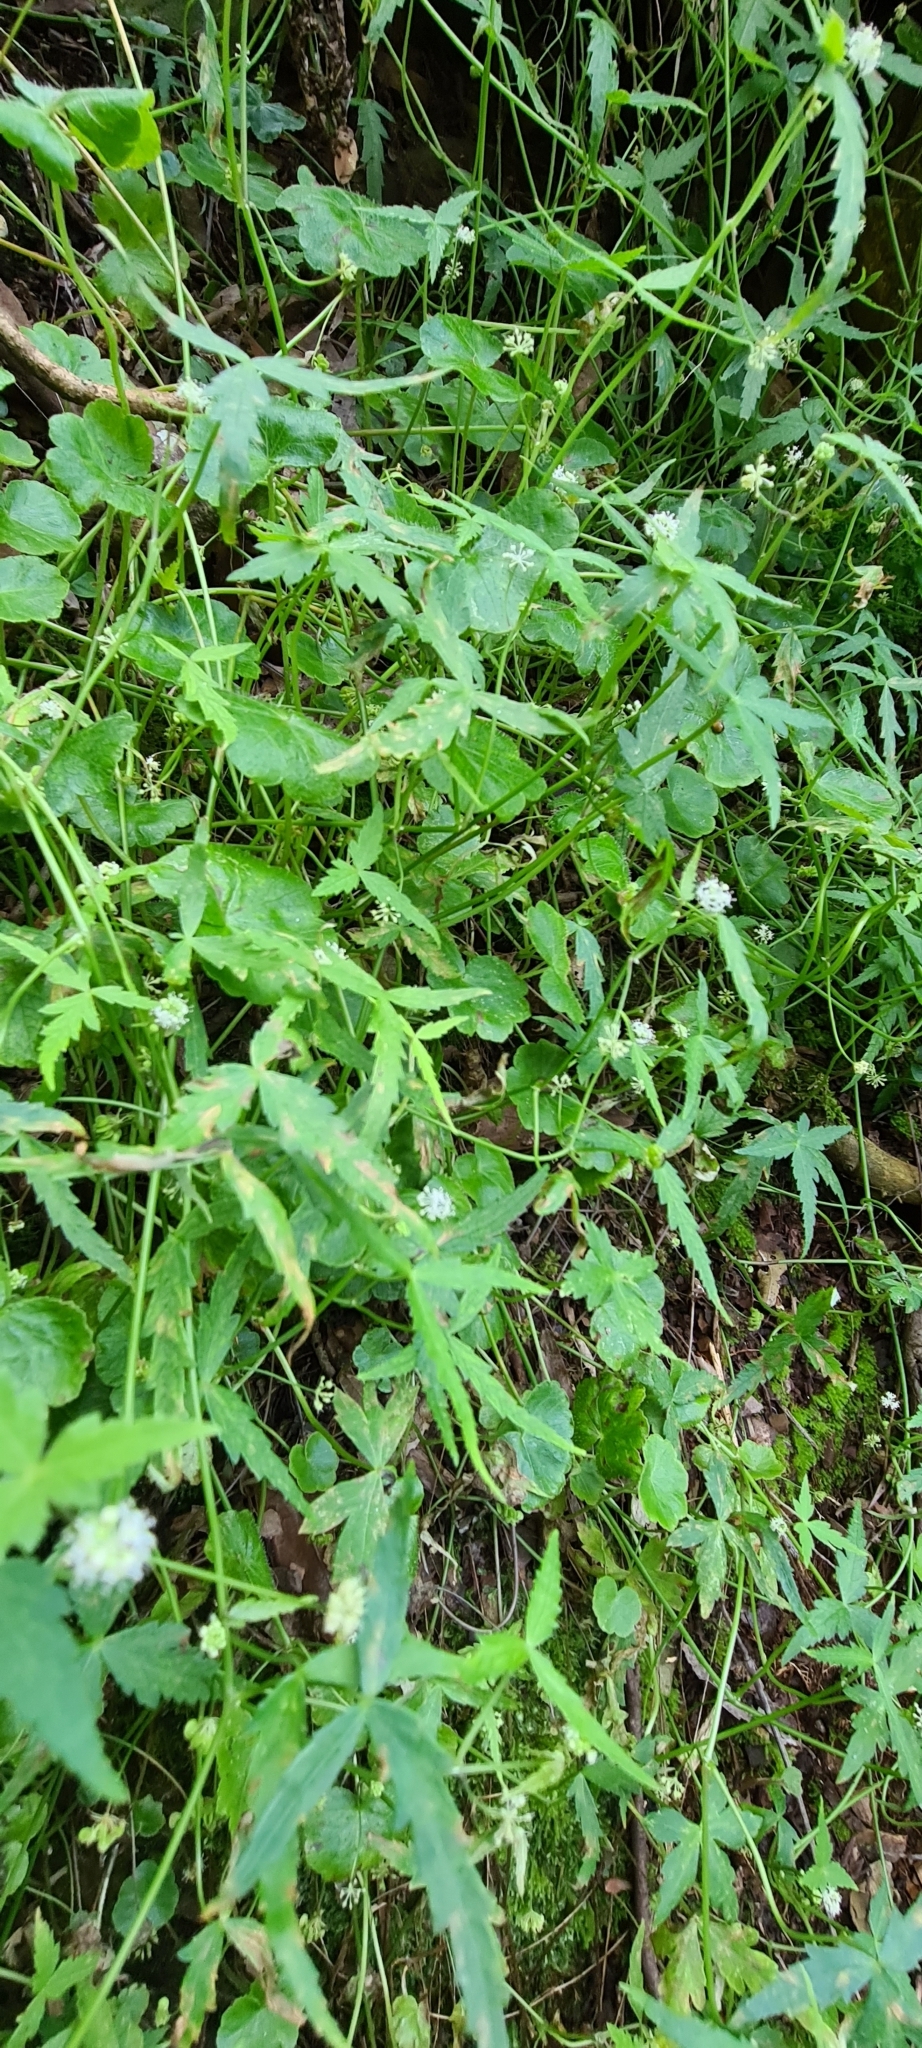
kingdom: Plantae
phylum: Tracheophyta
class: Magnoliopsida
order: Apiales
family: Araliaceae
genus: Hydrocotyle
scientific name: Hydrocotyle geraniifolia
